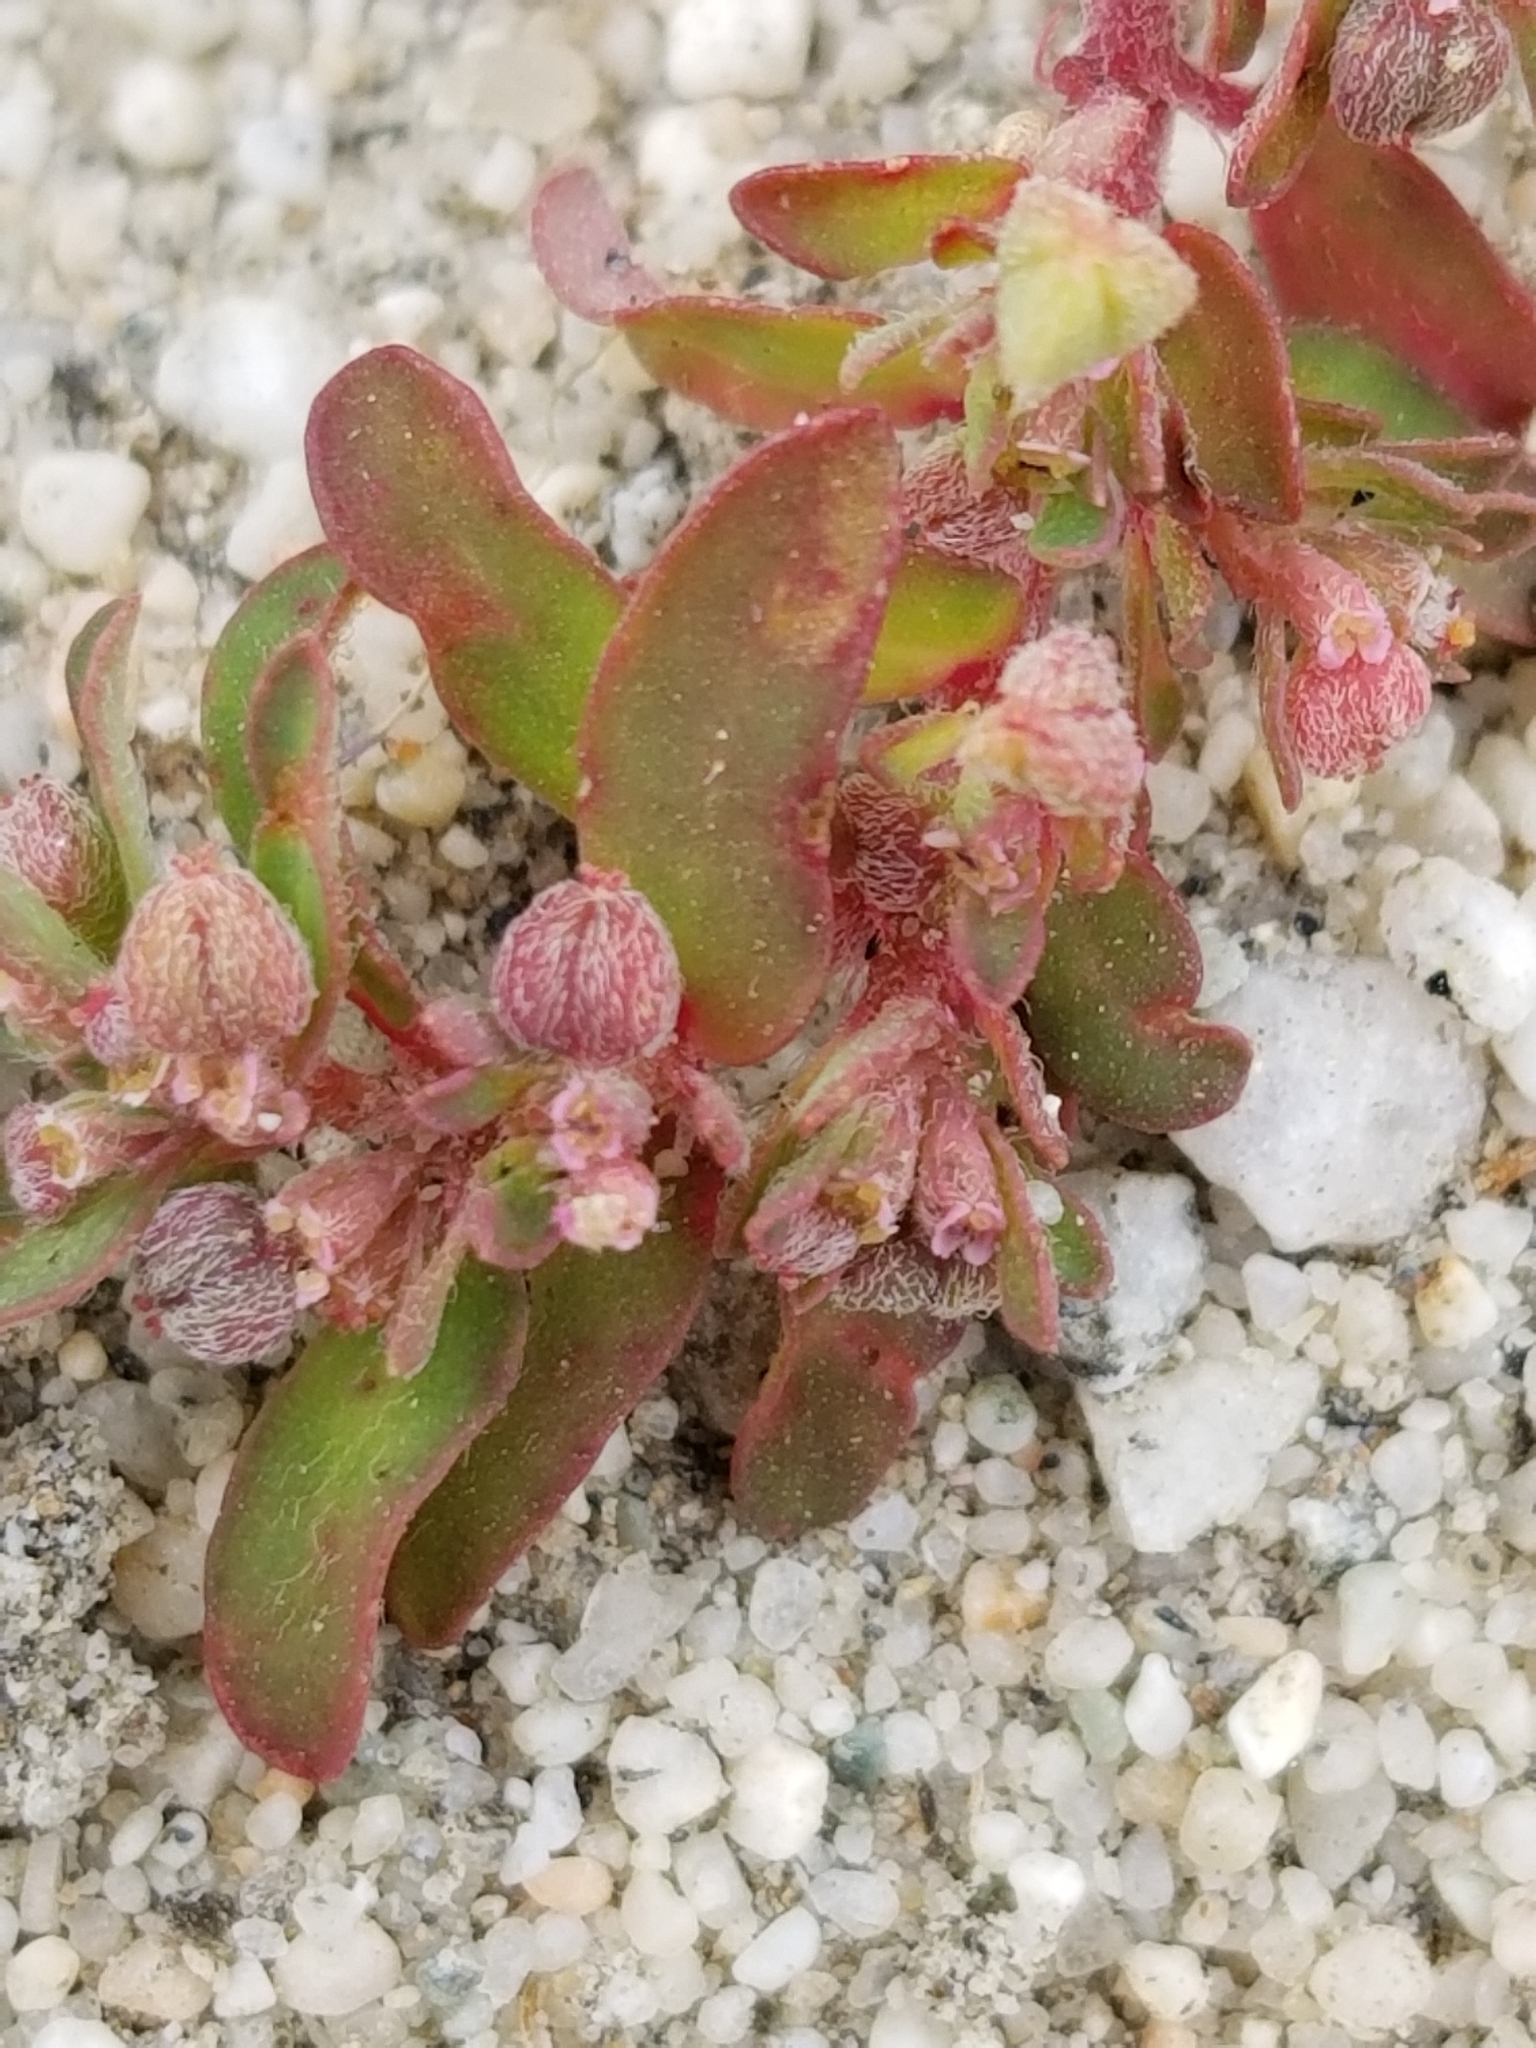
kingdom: Plantae
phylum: Tracheophyta
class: Magnoliopsida
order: Malpighiales
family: Euphorbiaceae
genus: Euphorbia
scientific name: Euphorbia maculata
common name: Spotted spurge
